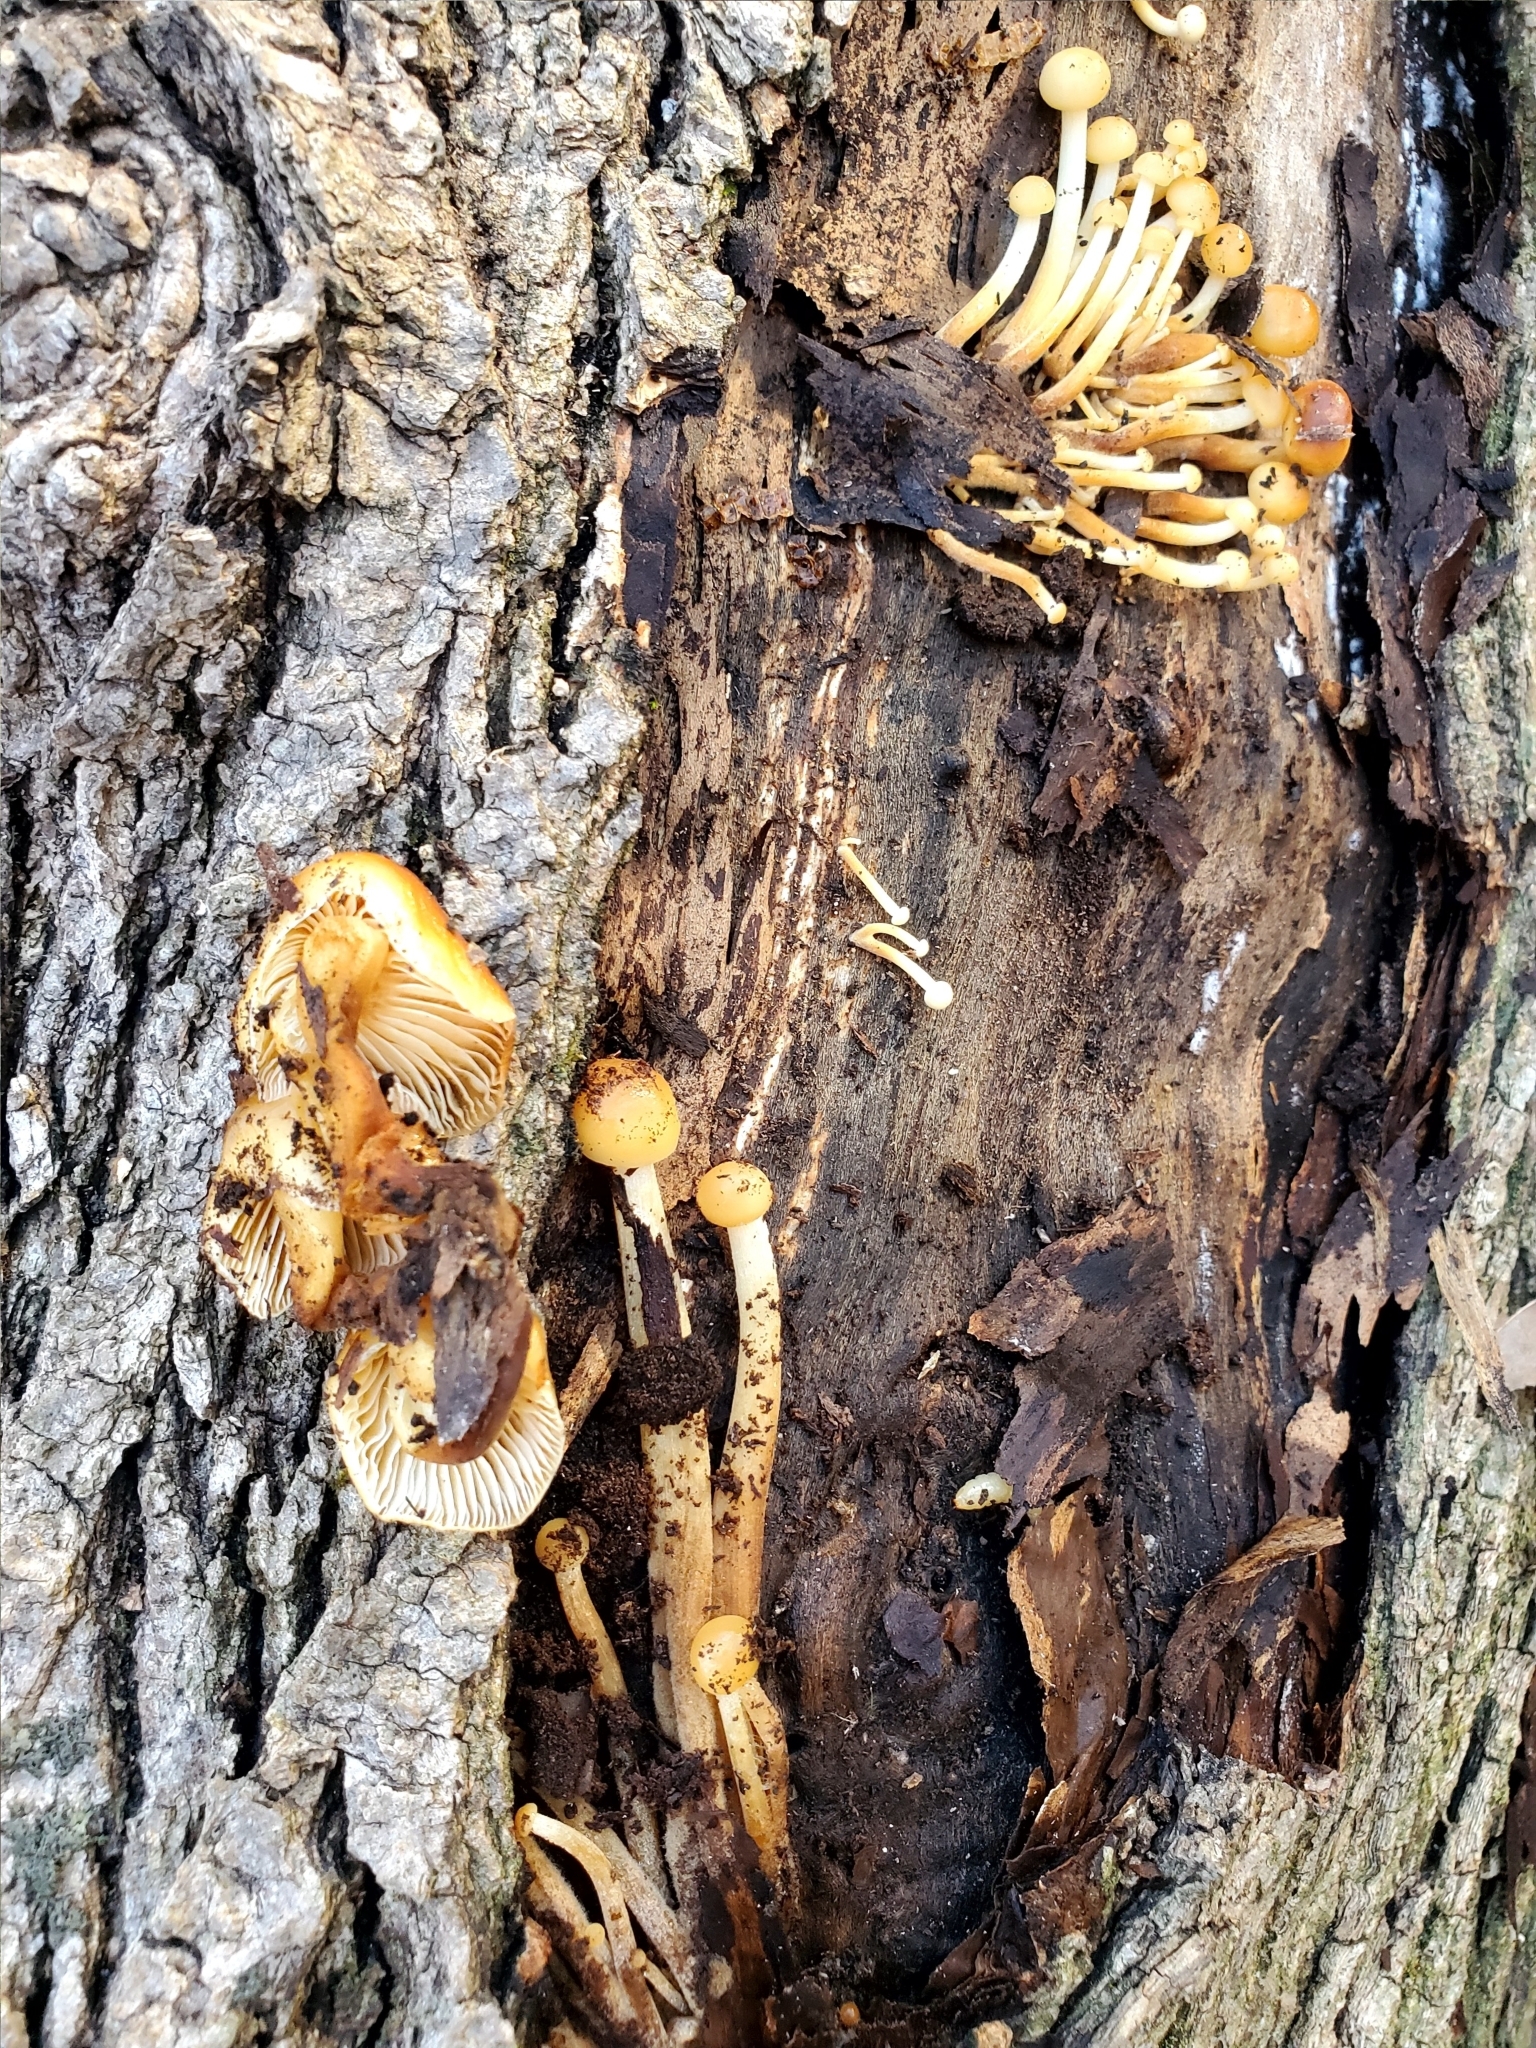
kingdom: Fungi
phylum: Basidiomycota
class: Agaricomycetes
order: Agaricales
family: Physalacriaceae
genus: Flammulina
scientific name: Flammulina velutipes
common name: Velvet shank
